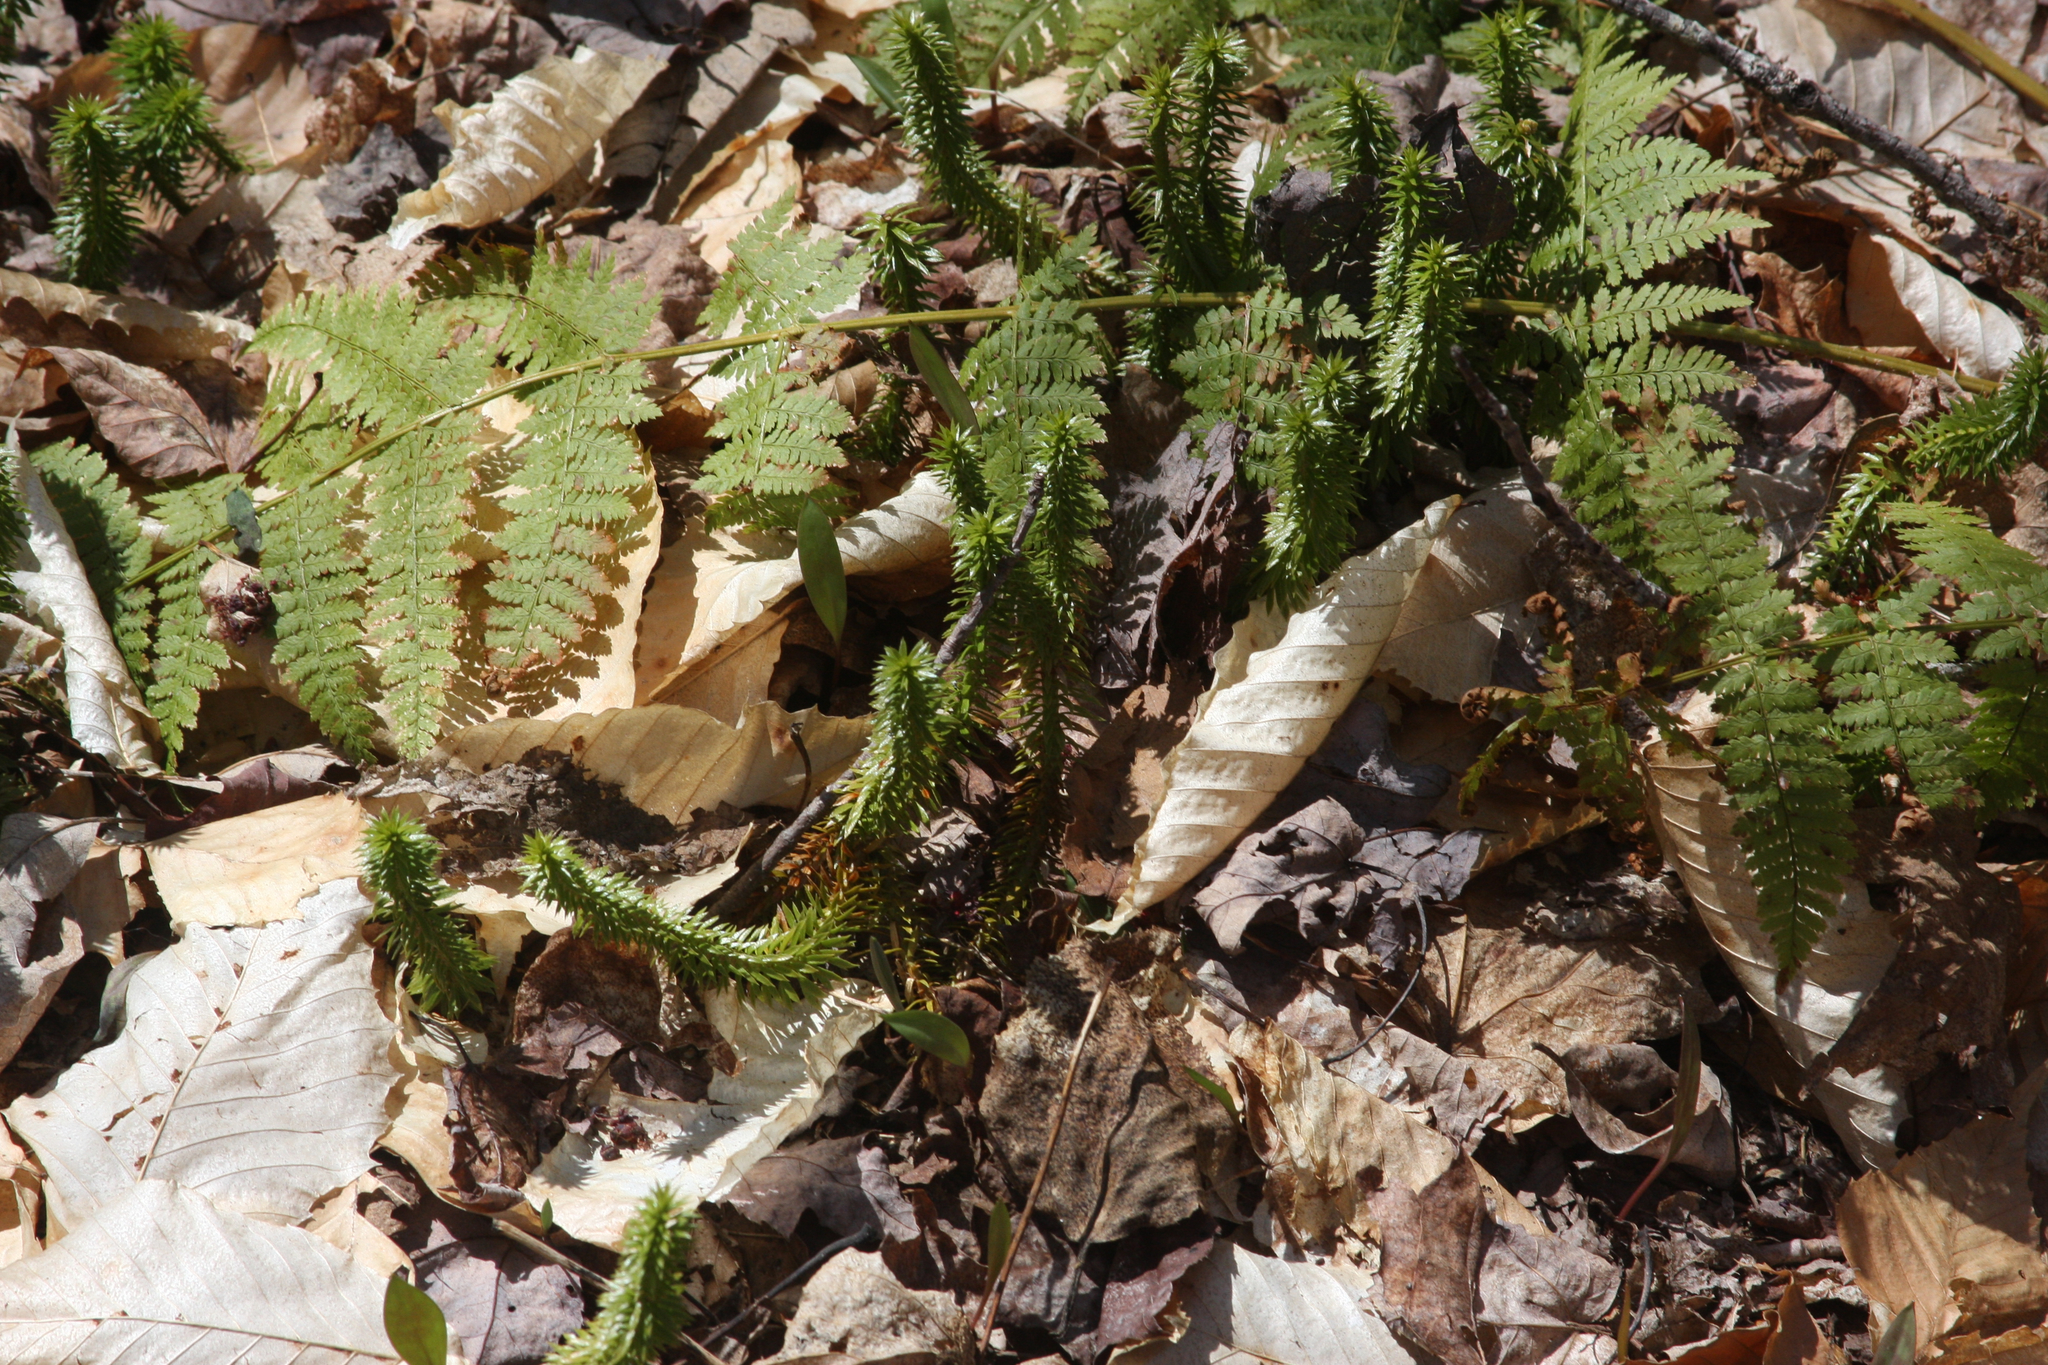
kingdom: Plantae
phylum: Tracheophyta
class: Lycopodiopsida
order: Lycopodiales
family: Lycopodiaceae
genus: Huperzia
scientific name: Huperzia lucidula
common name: Shining clubmoss
